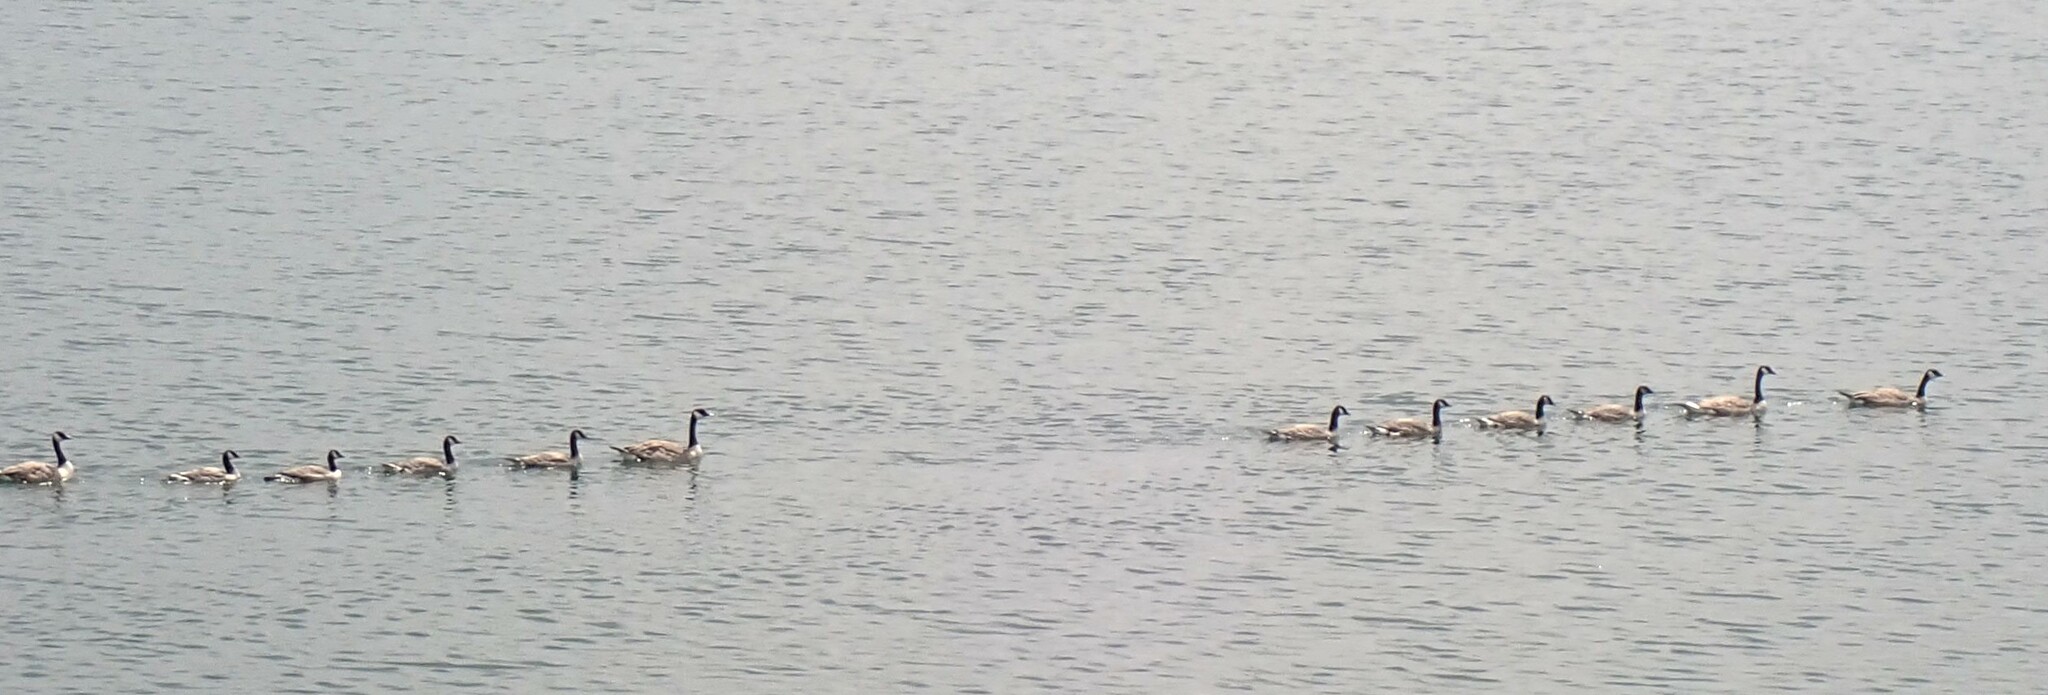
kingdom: Animalia
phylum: Chordata
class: Aves
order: Anseriformes
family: Anatidae
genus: Branta
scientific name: Branta canadensis
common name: Canada goose
